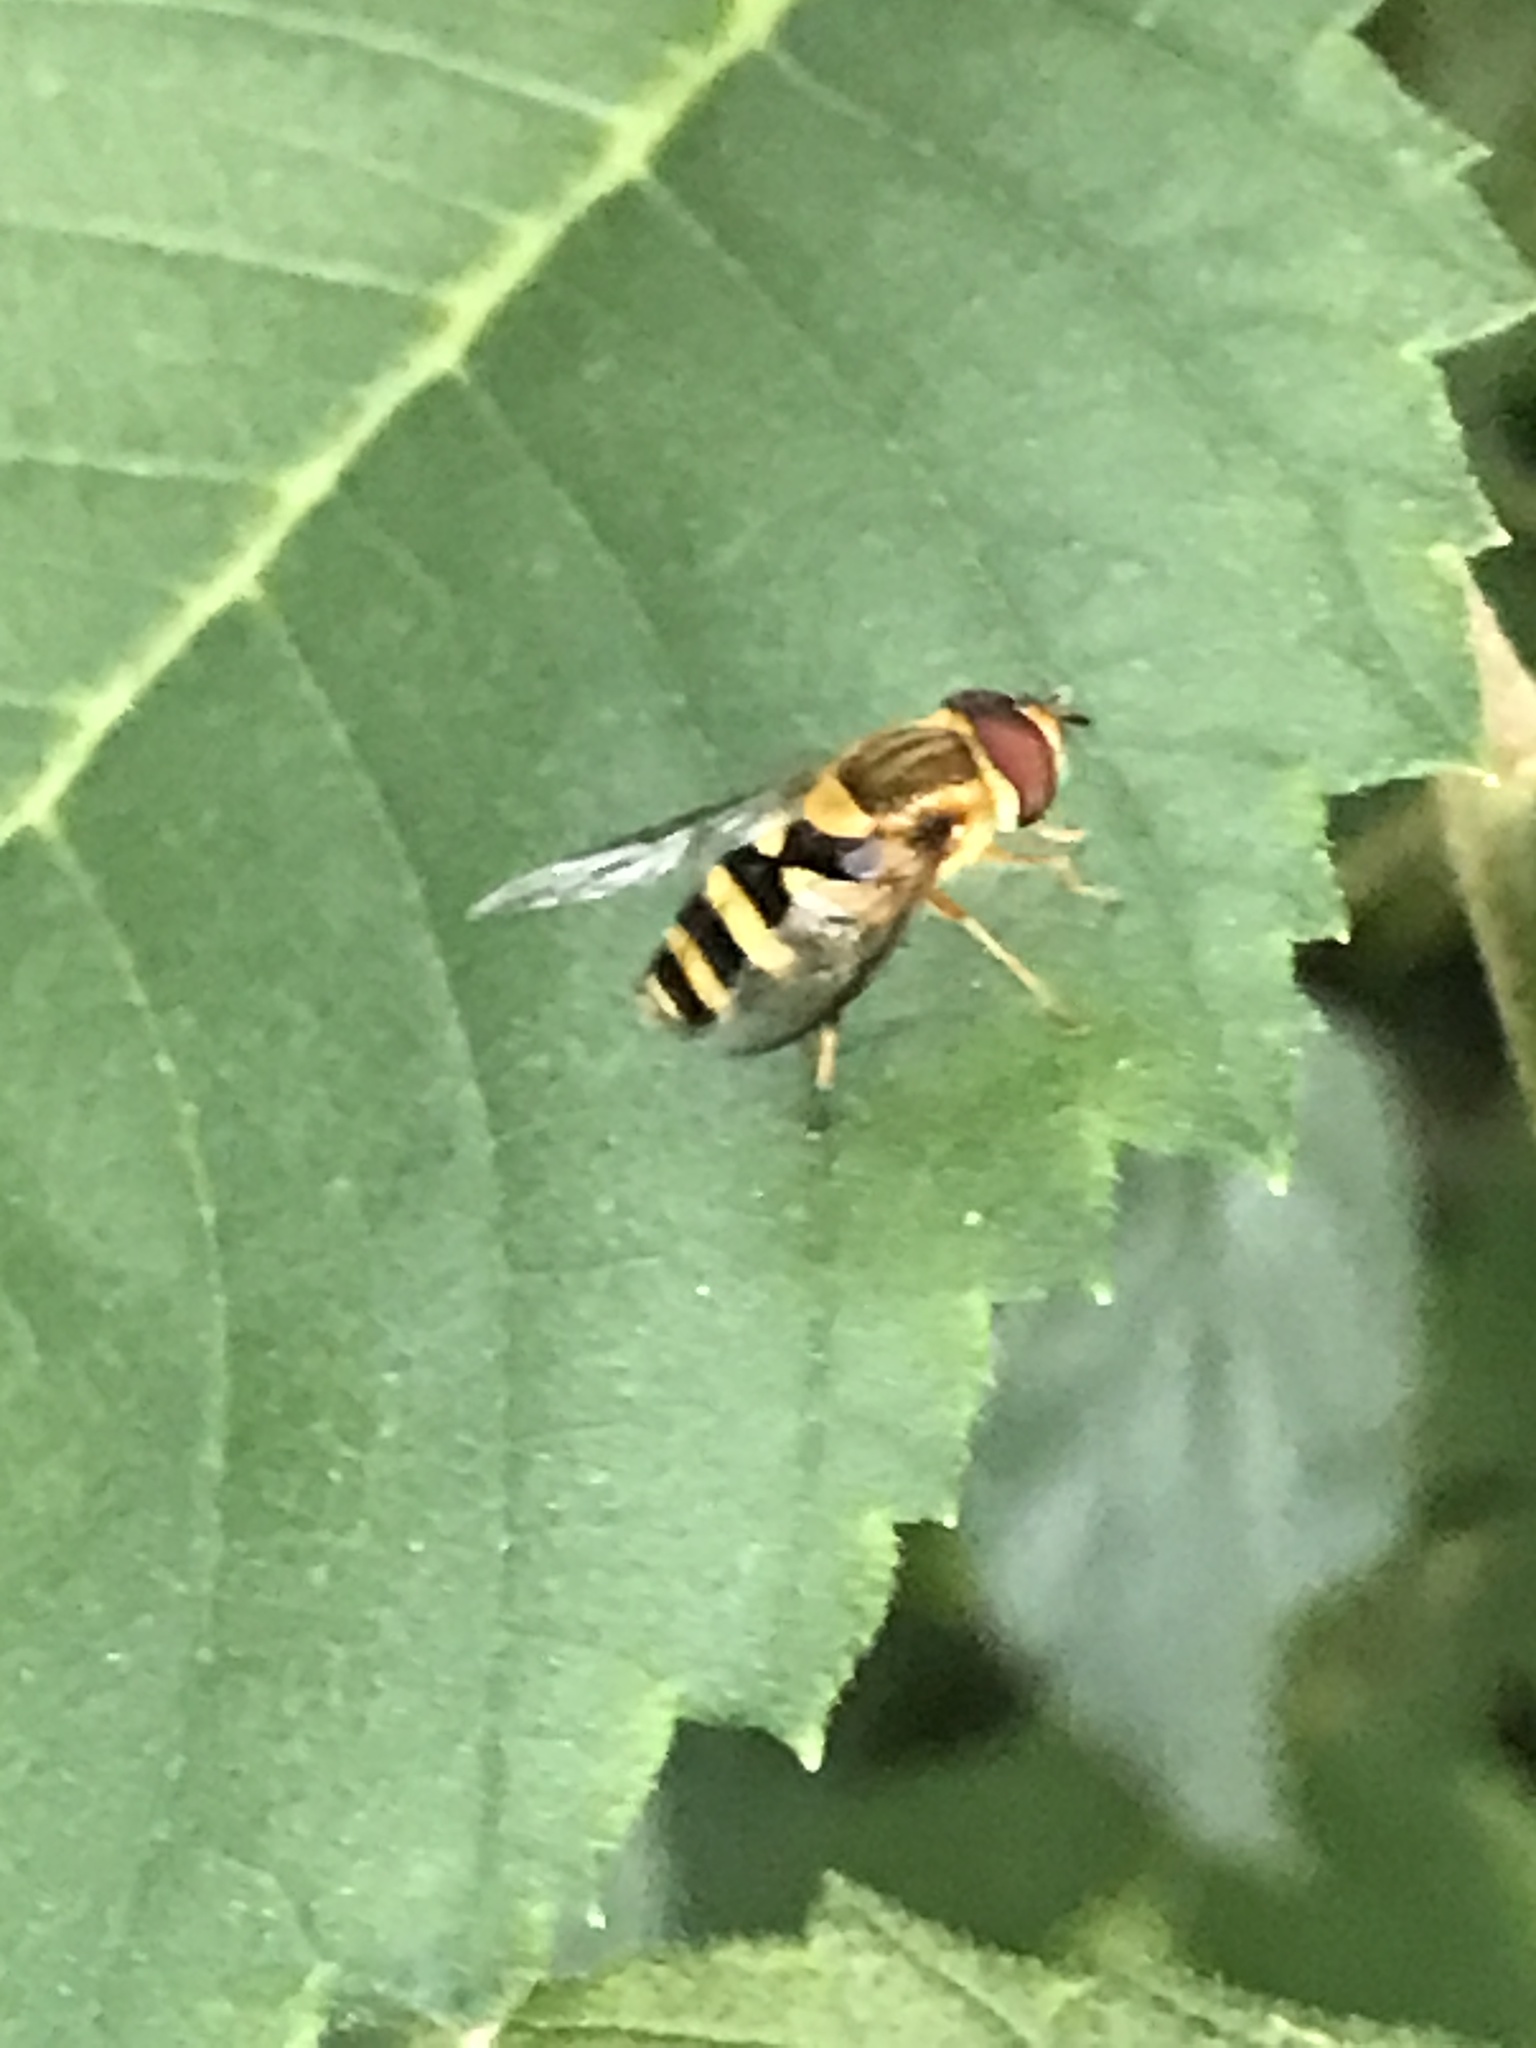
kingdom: Animalia
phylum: Arthropoda
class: Insecta
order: Diptera
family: Syrphidae
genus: Syrphus
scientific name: Syrphus knabi
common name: Eastern flower fly
